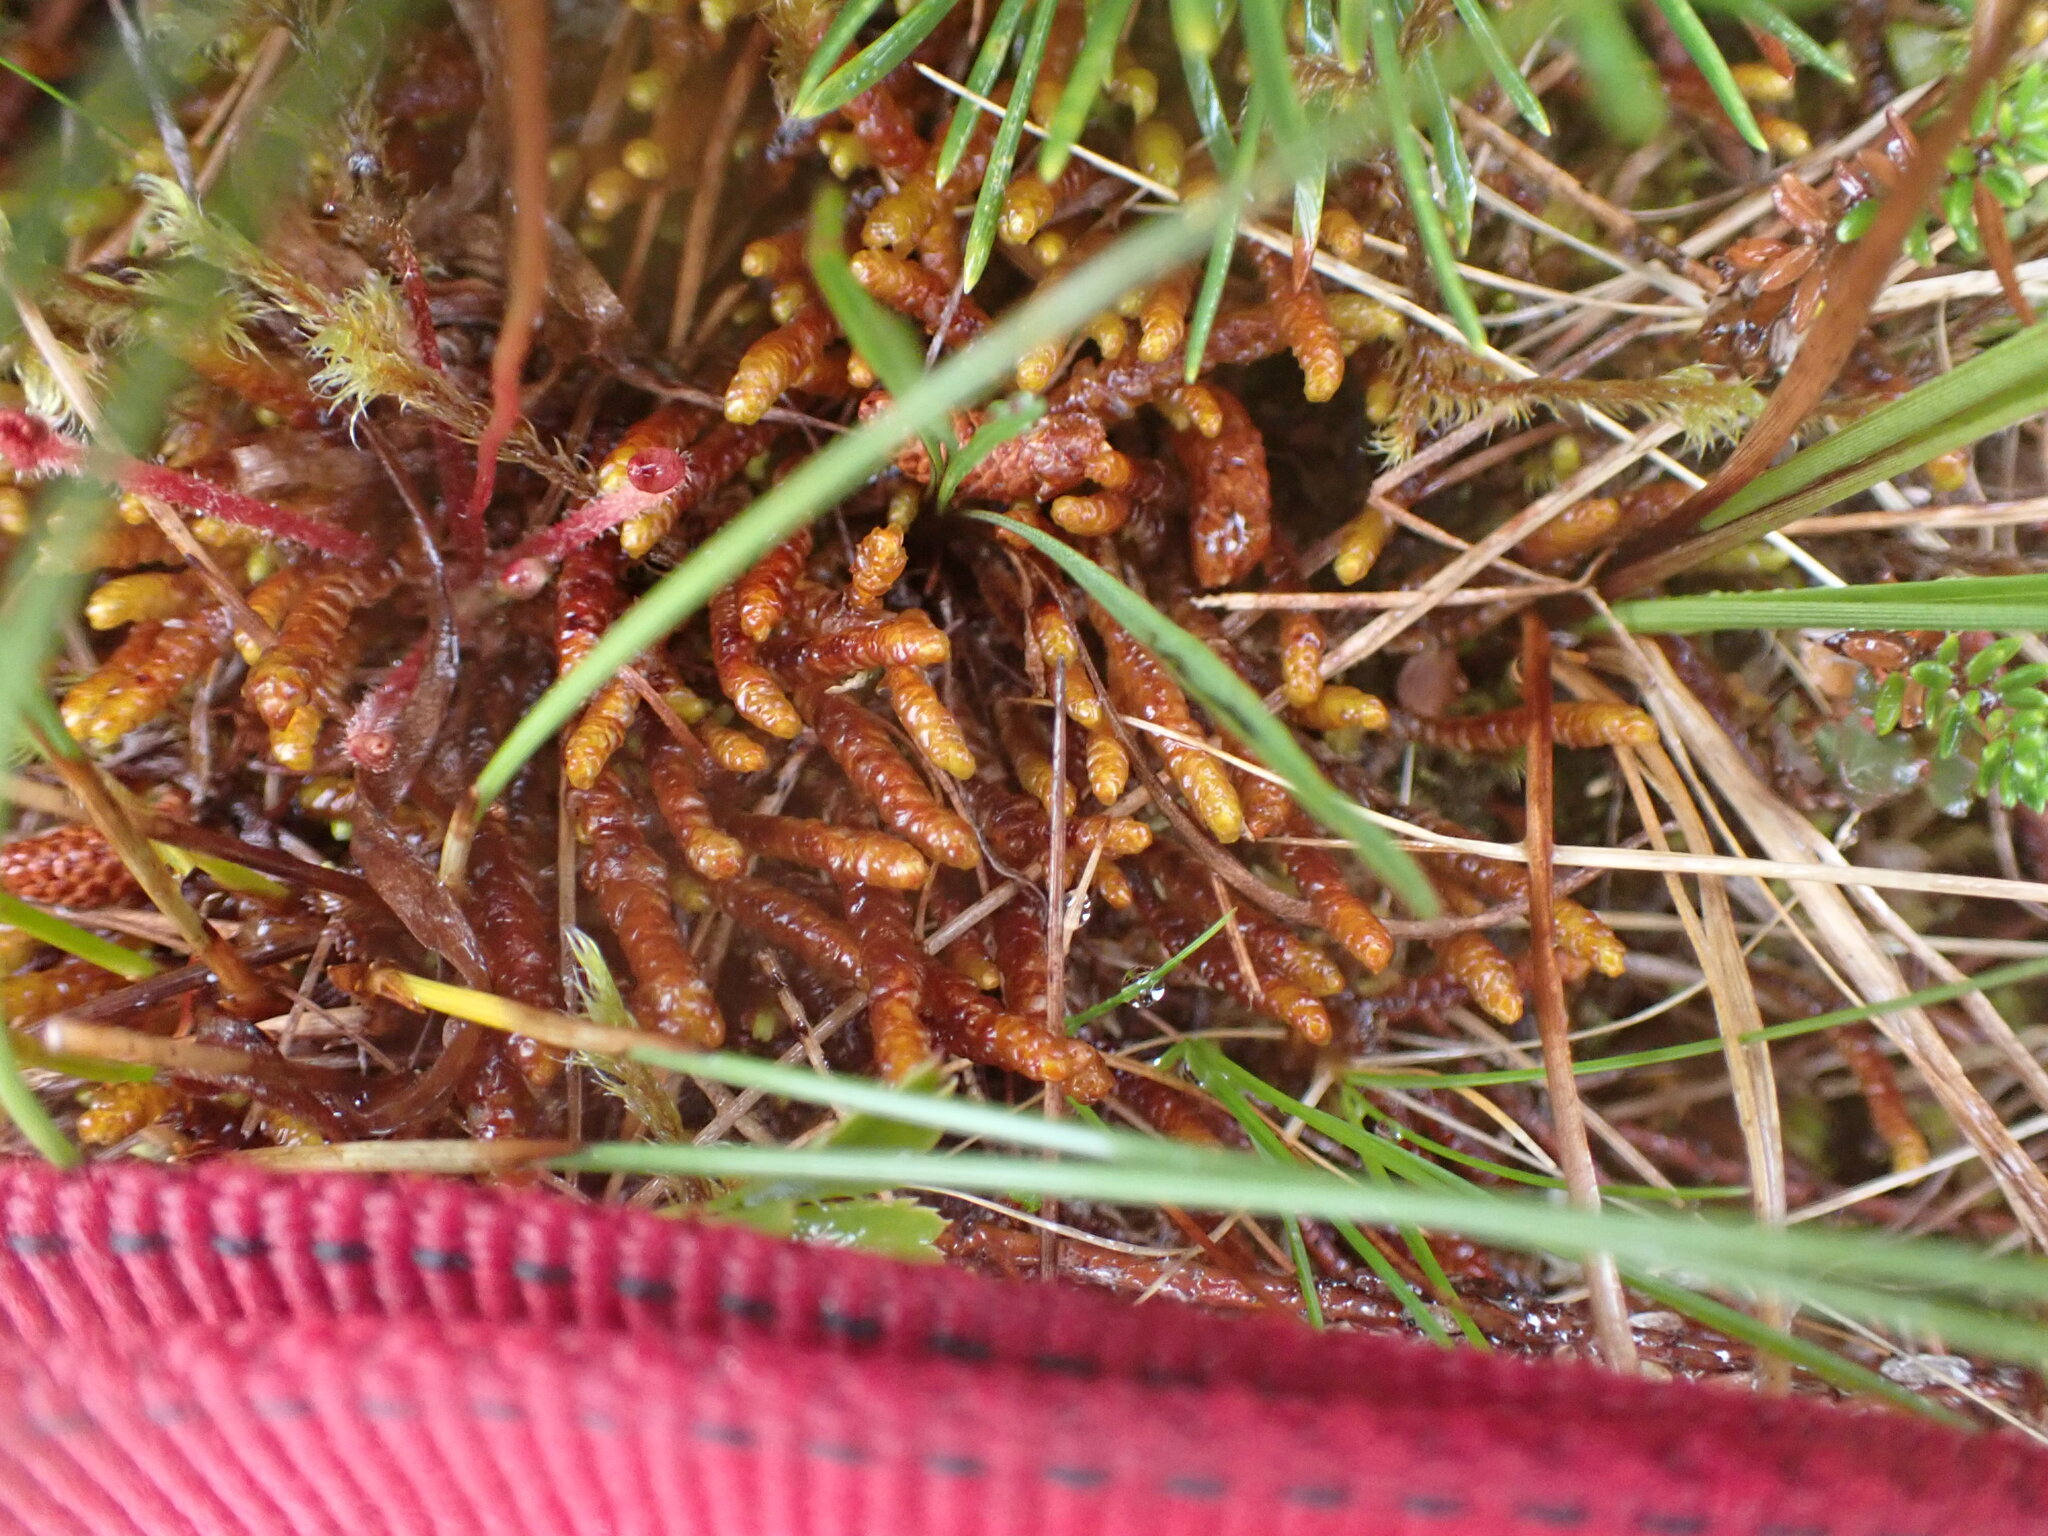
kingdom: Plantae
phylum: Marchantiophyta
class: Jungermanniopsida
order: Pleuroziales
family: Pleuroziaceae
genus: Pleurozia
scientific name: Pleurozia purpurea
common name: Purple spoonwort
